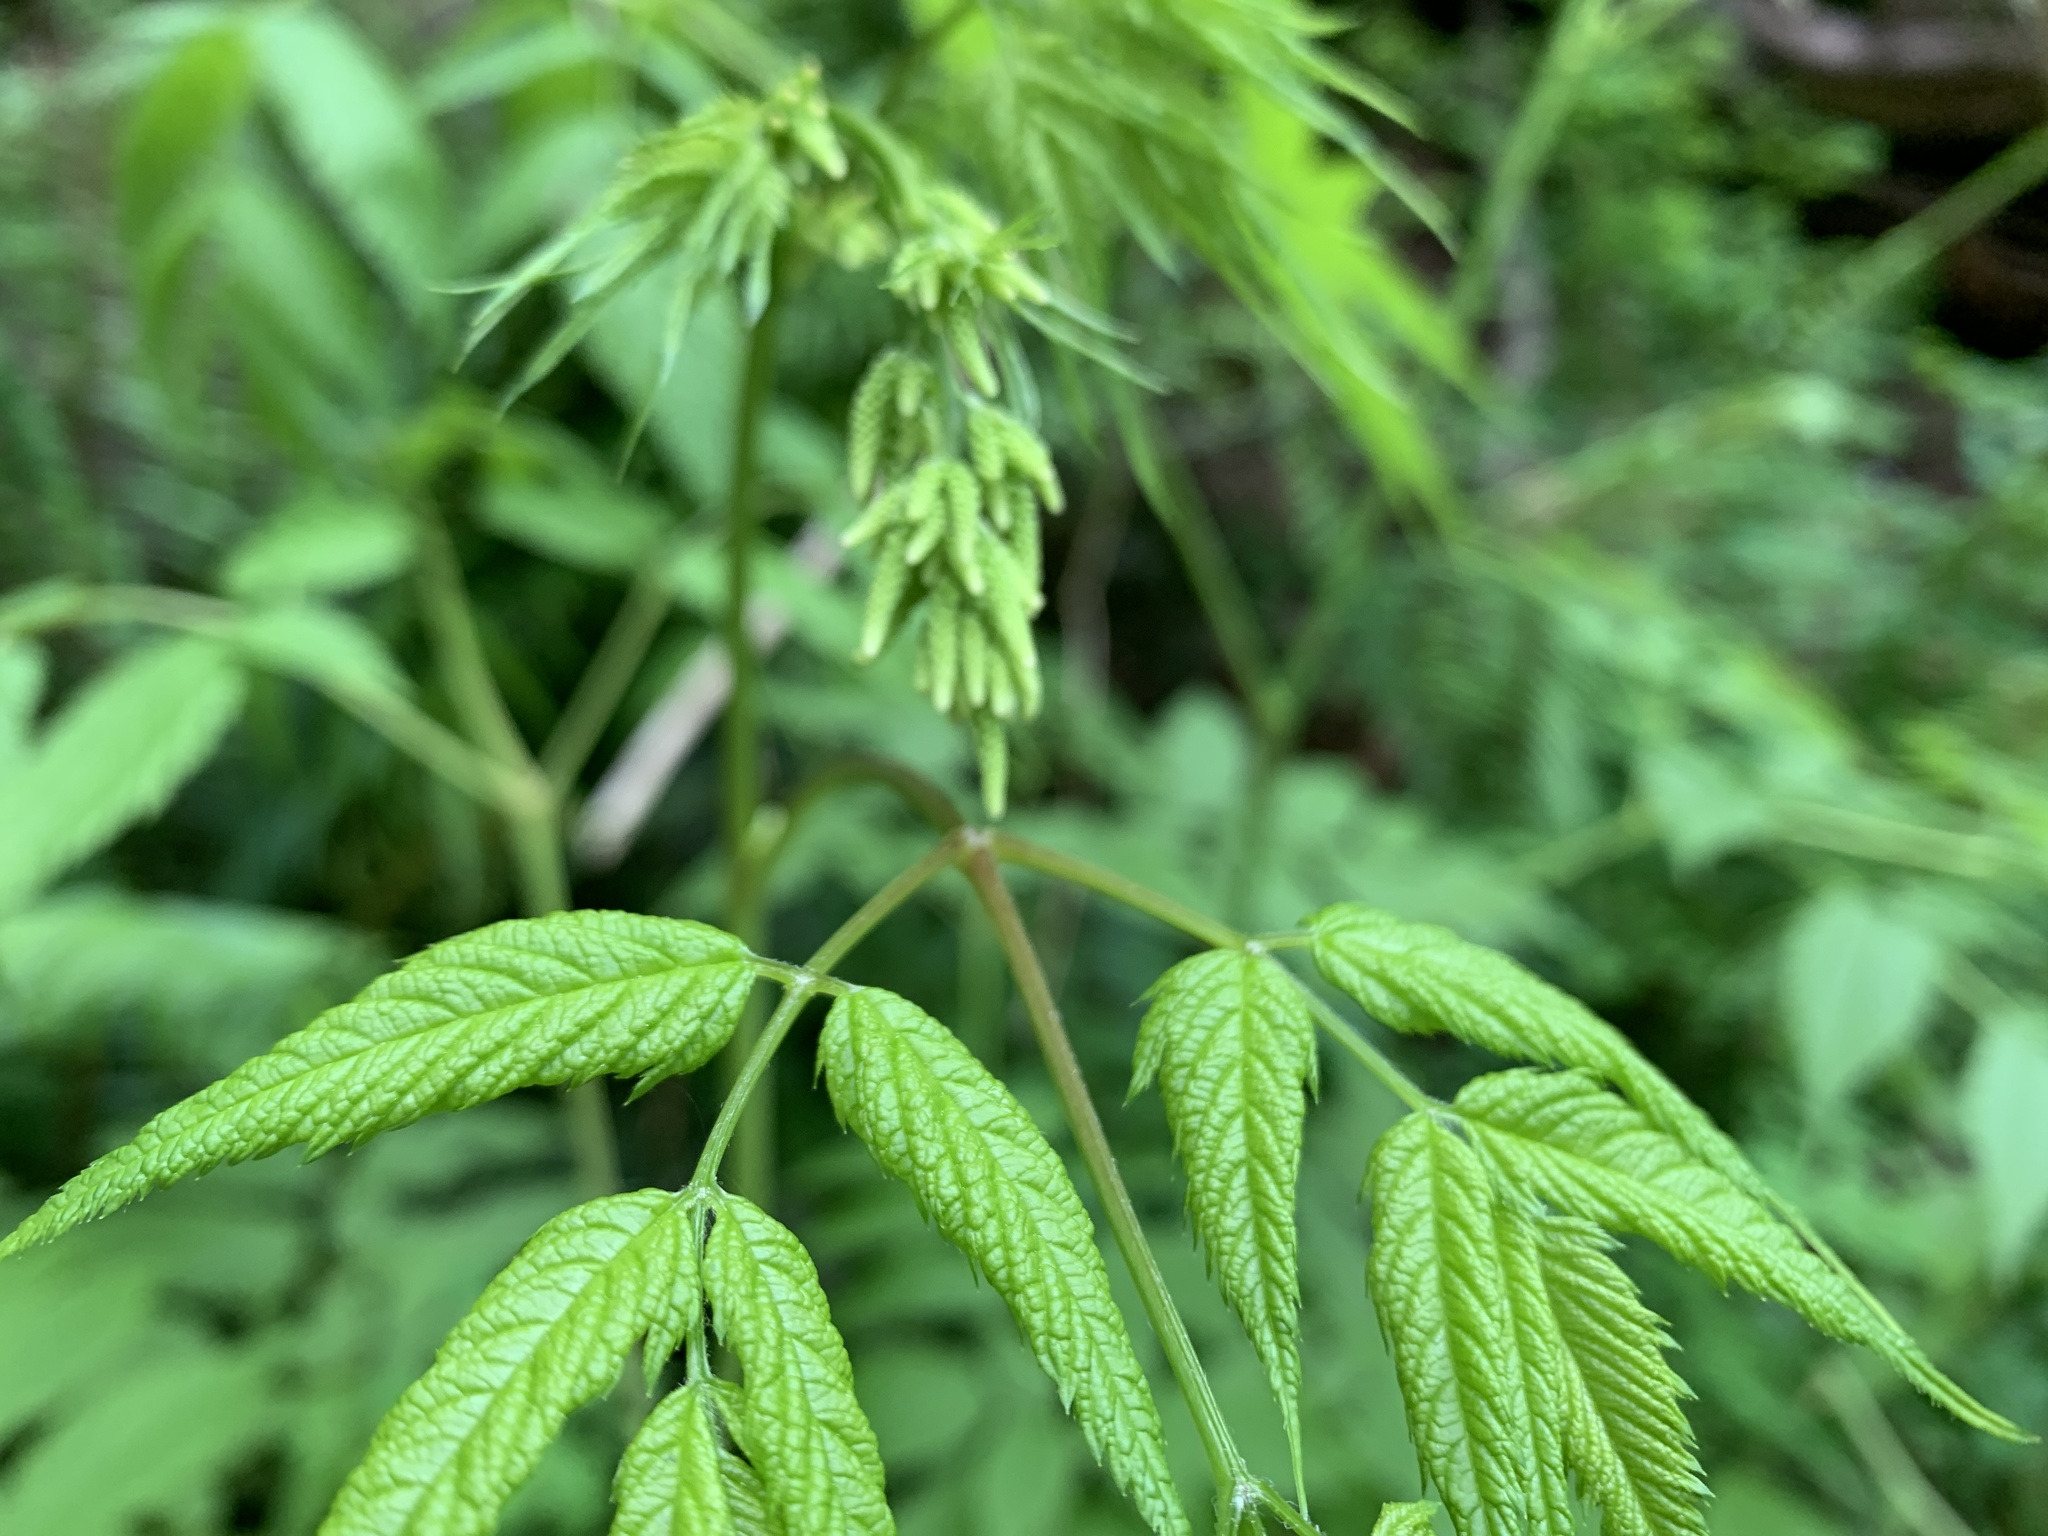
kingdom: Plantae
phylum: Tracheophyta
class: Magnoliopsida
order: Rosales
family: Rosaceae
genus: Aruncus
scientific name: Aruncus dioicus
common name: Buck's-beard
